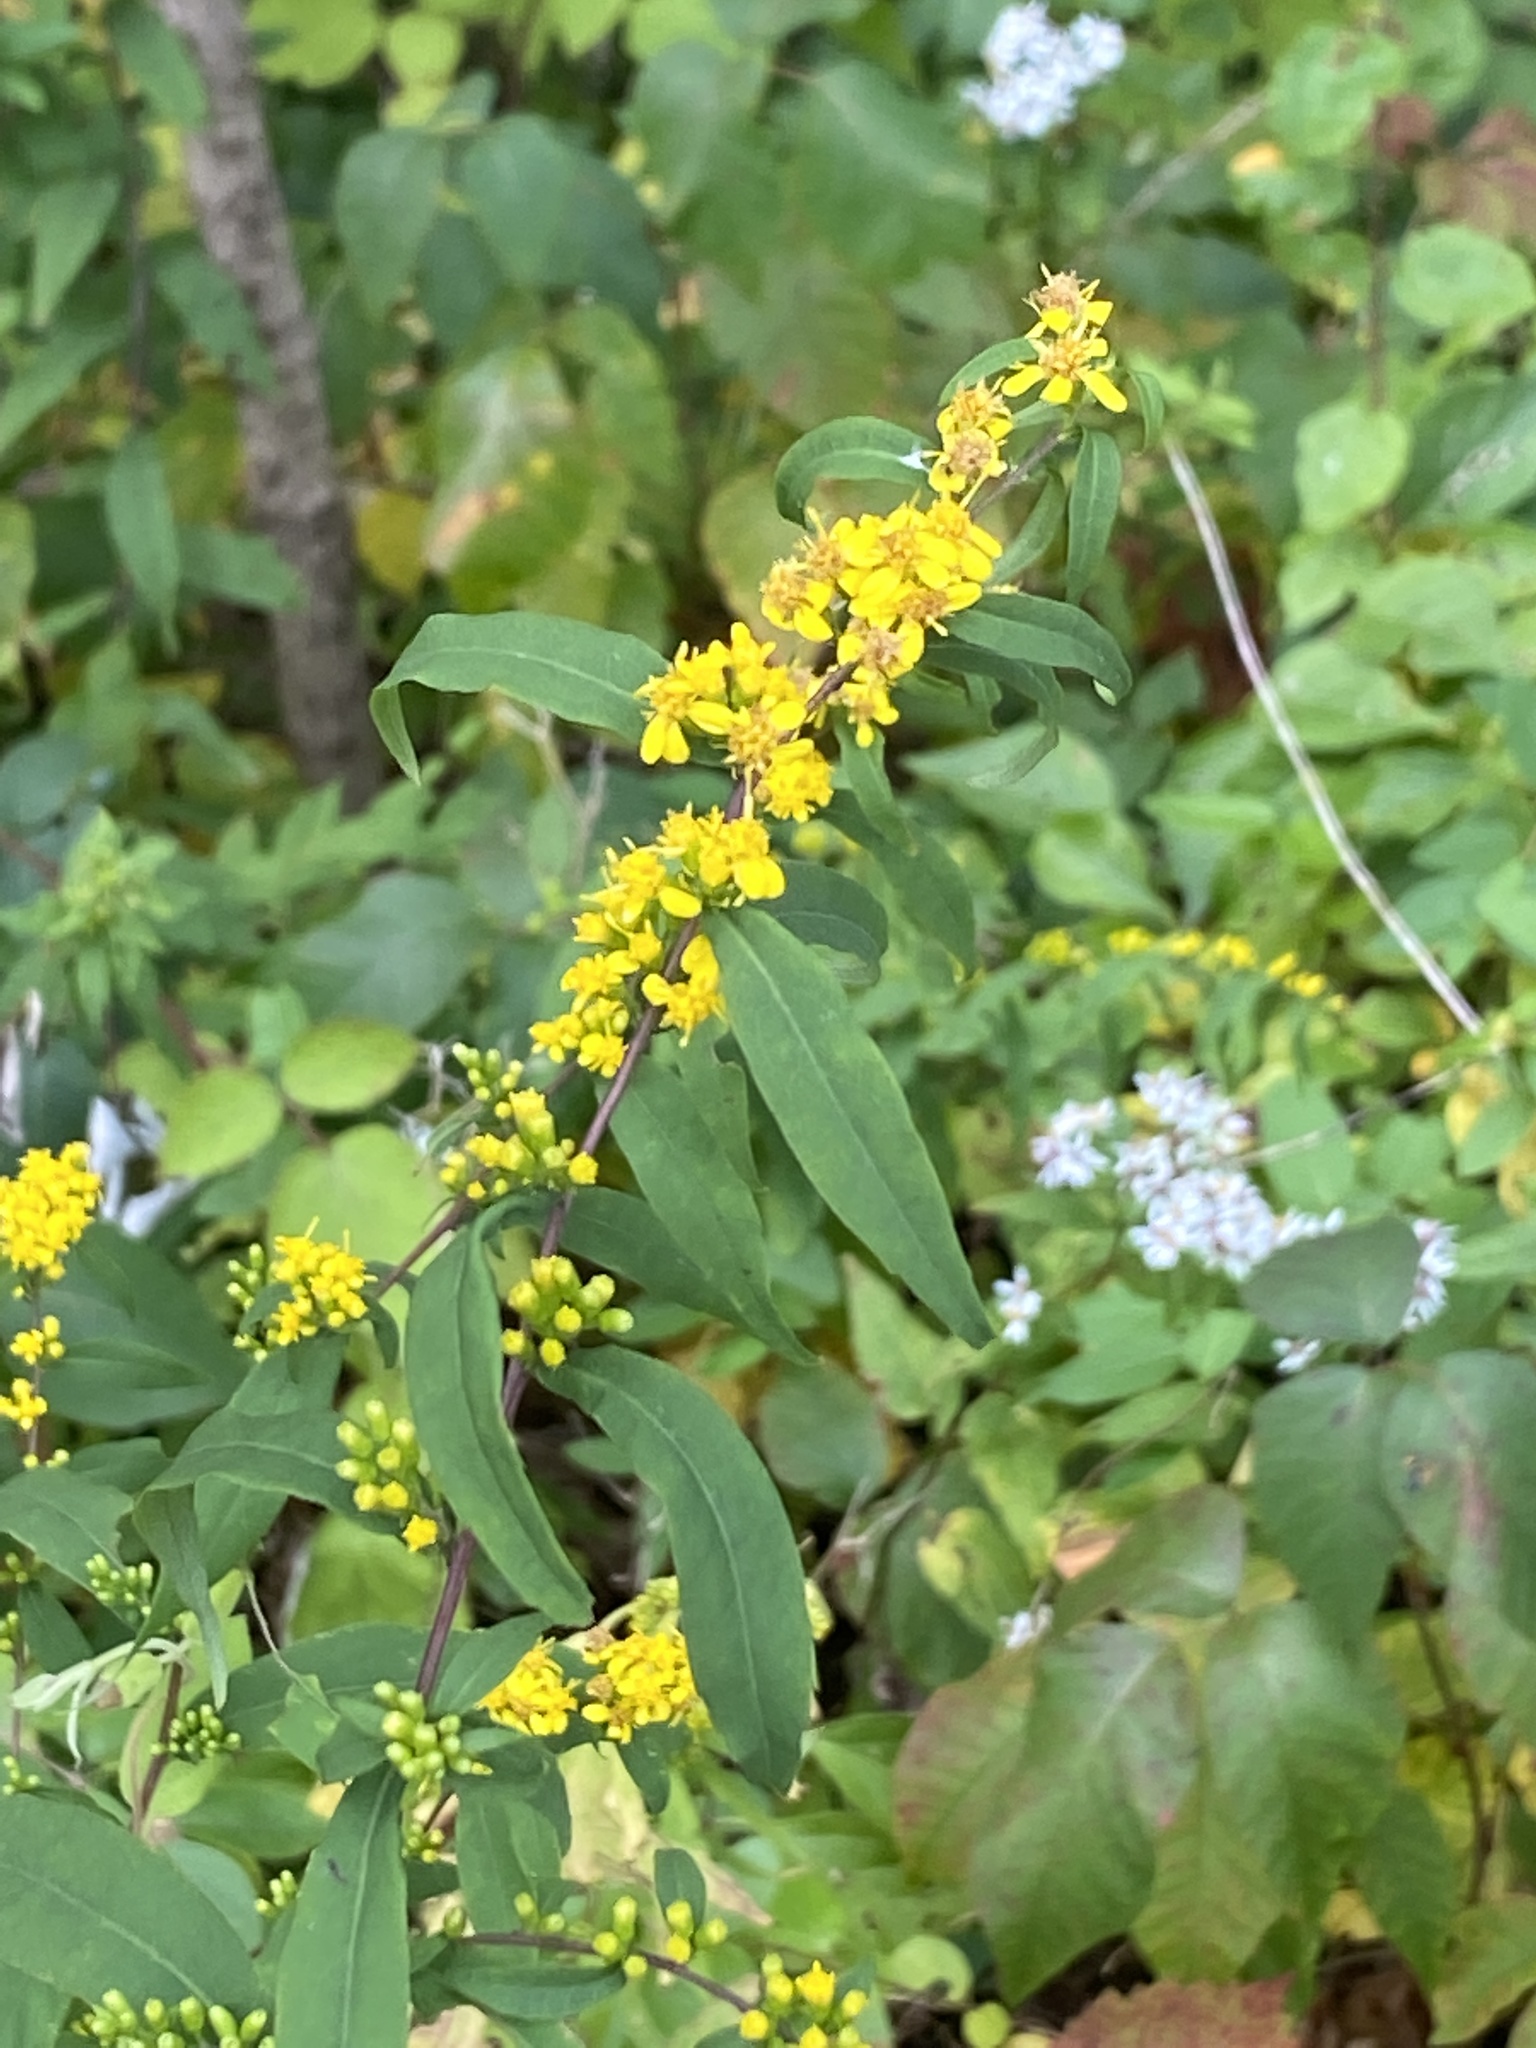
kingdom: Plantae
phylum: Tracheophyta
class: Magnoliopsida
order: Asterales
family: Asteraceae
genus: Solidago
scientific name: Solidago caesia
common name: Woodland goldenrod
